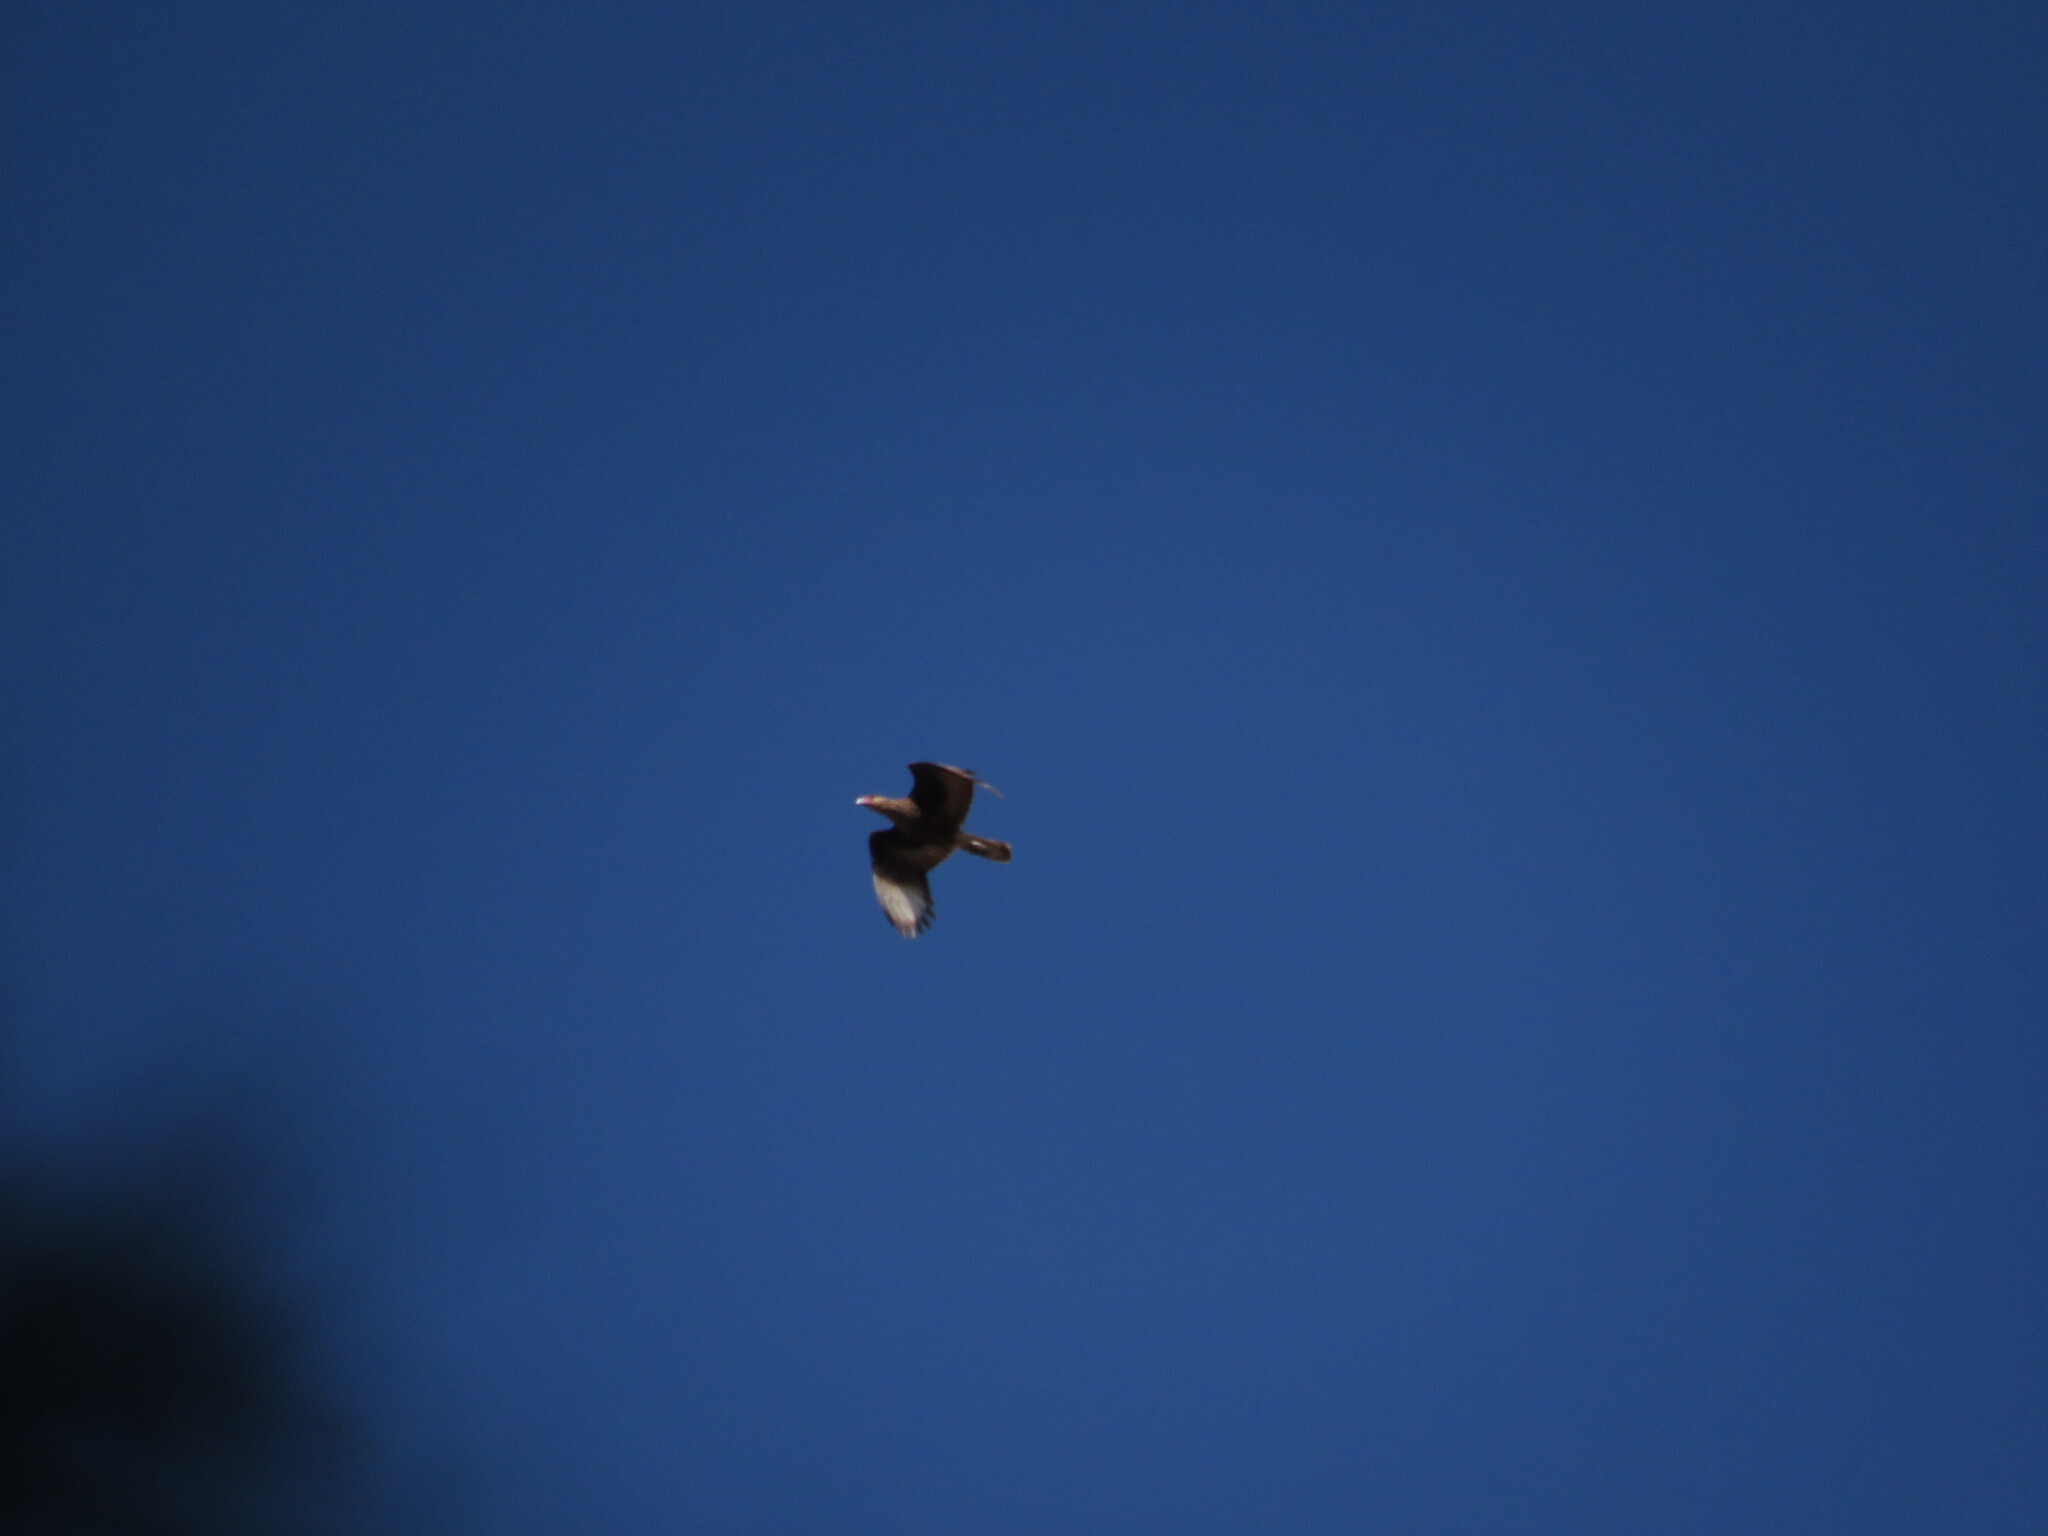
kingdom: Animalia
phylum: Chordata
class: Aves
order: Falconiformes
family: Falconidae
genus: Caracara
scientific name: Caracara plancus
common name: Southern caracara
